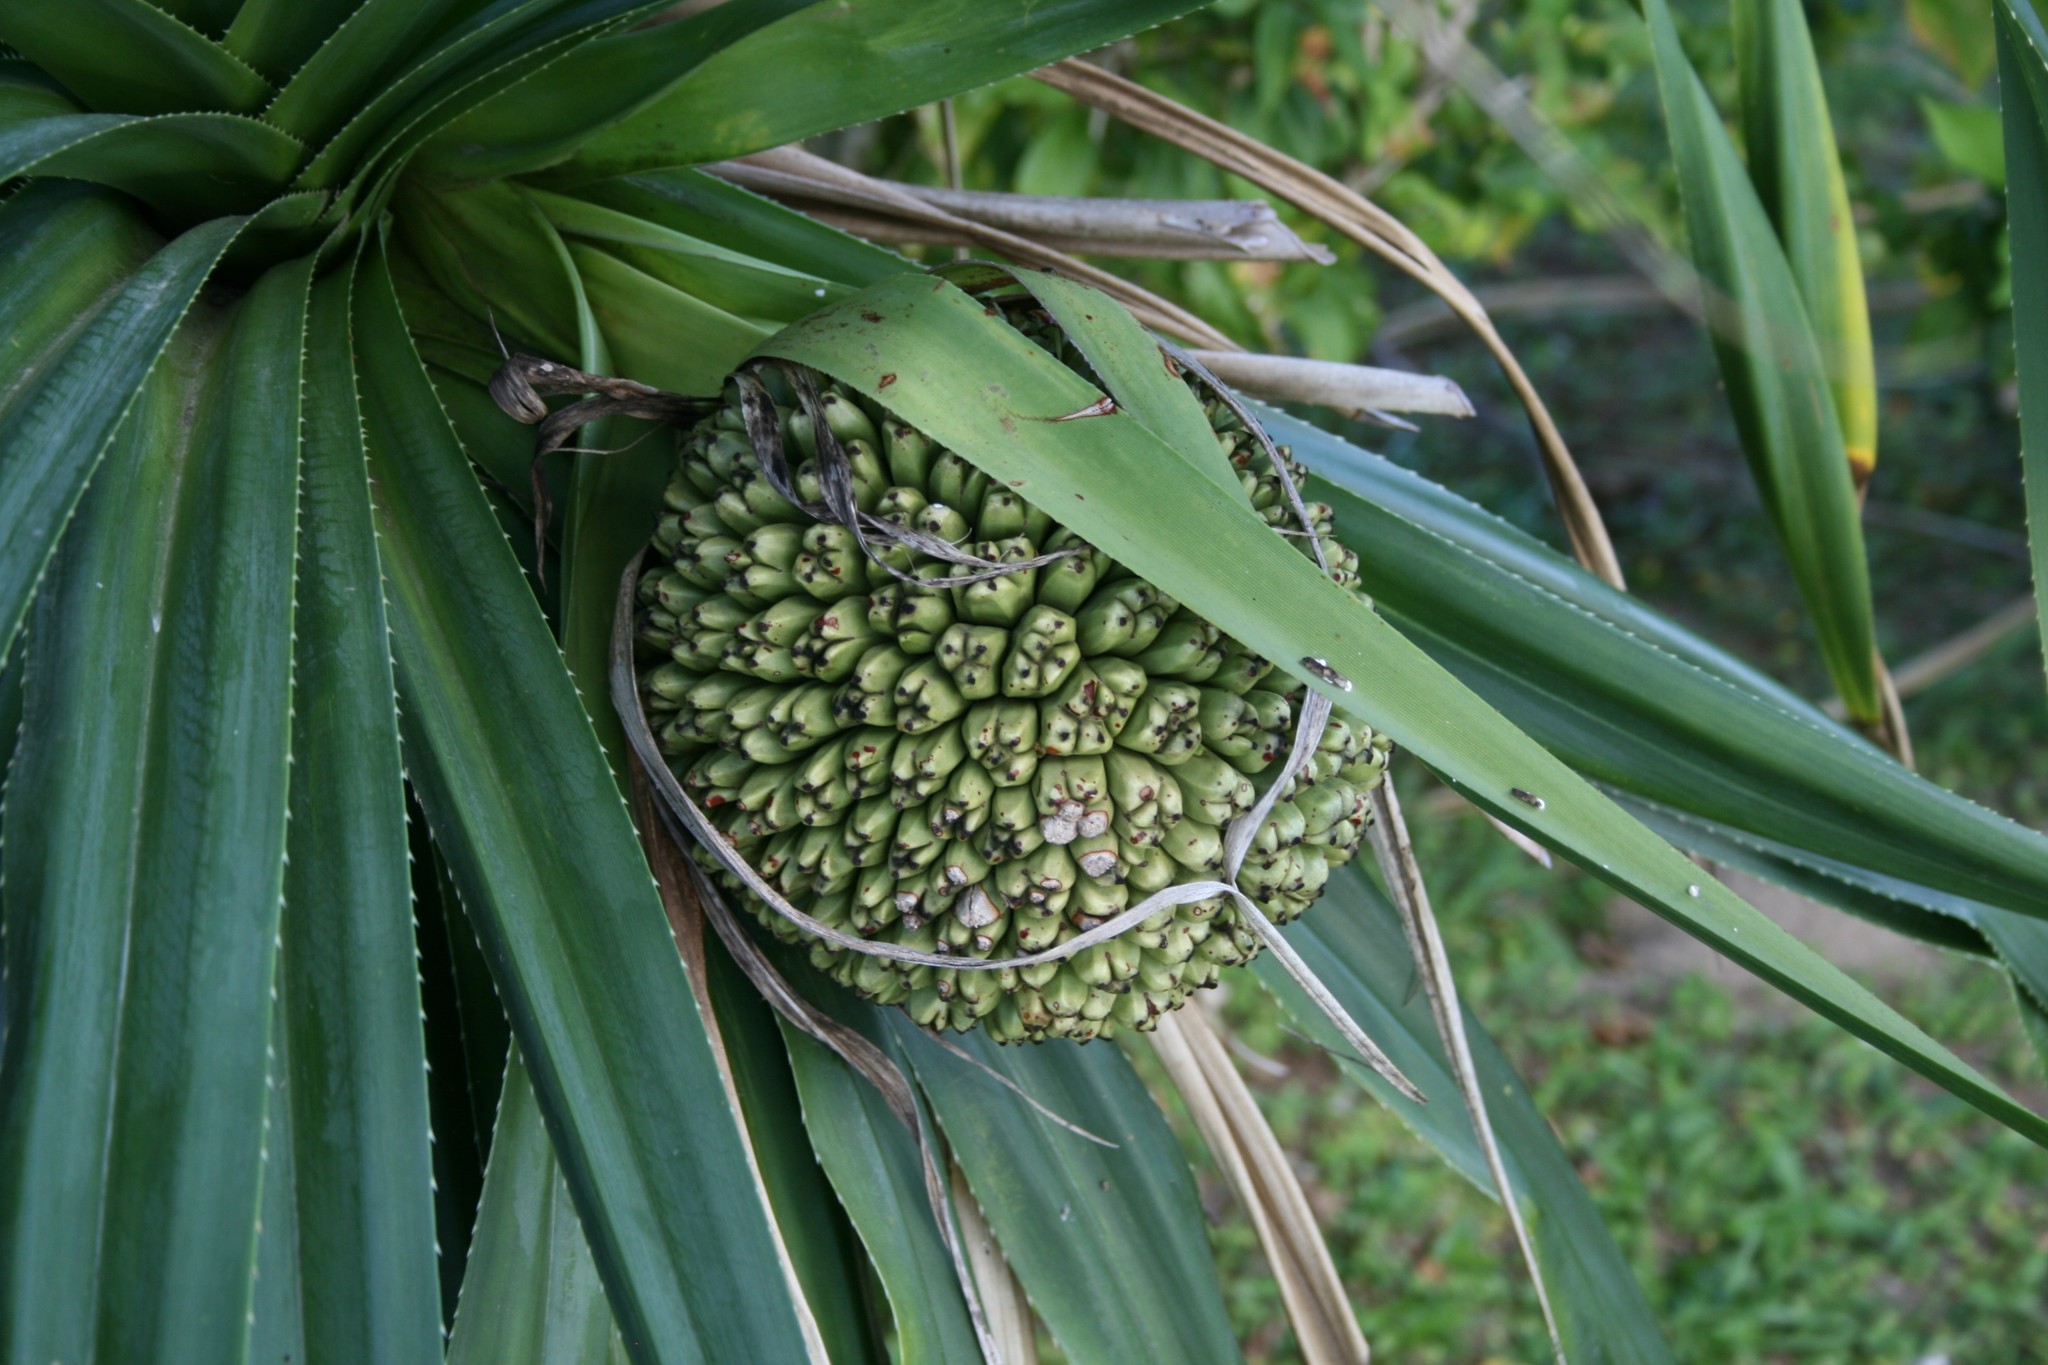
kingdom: Plantae
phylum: Tracheophyta
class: Liliopsida
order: Pandanales
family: Pandanaceae
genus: Pandanus
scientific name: Pandanus tectorius
